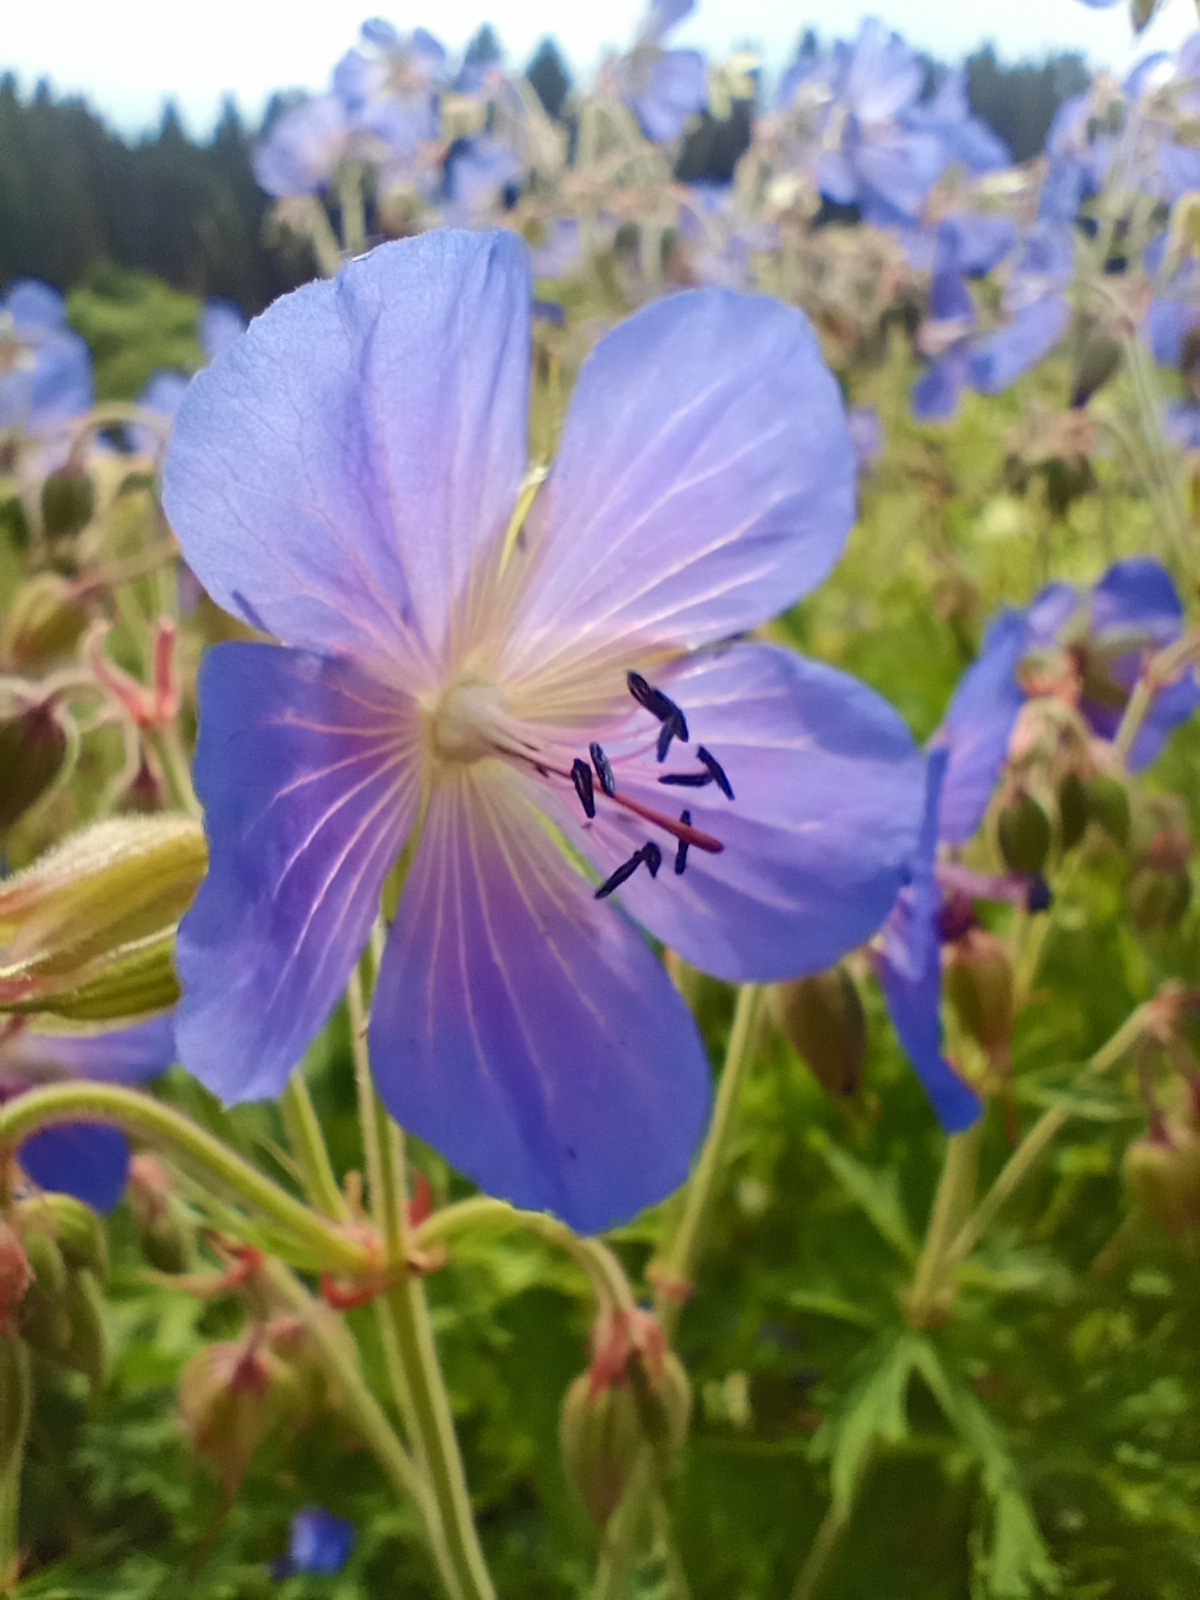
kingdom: Plantae
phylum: Tracheophyta
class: Magnoliopsida
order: Geraniales
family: Geraniaceae
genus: Geranium
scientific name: Geranium pratense
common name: Meadow crane's-bill
